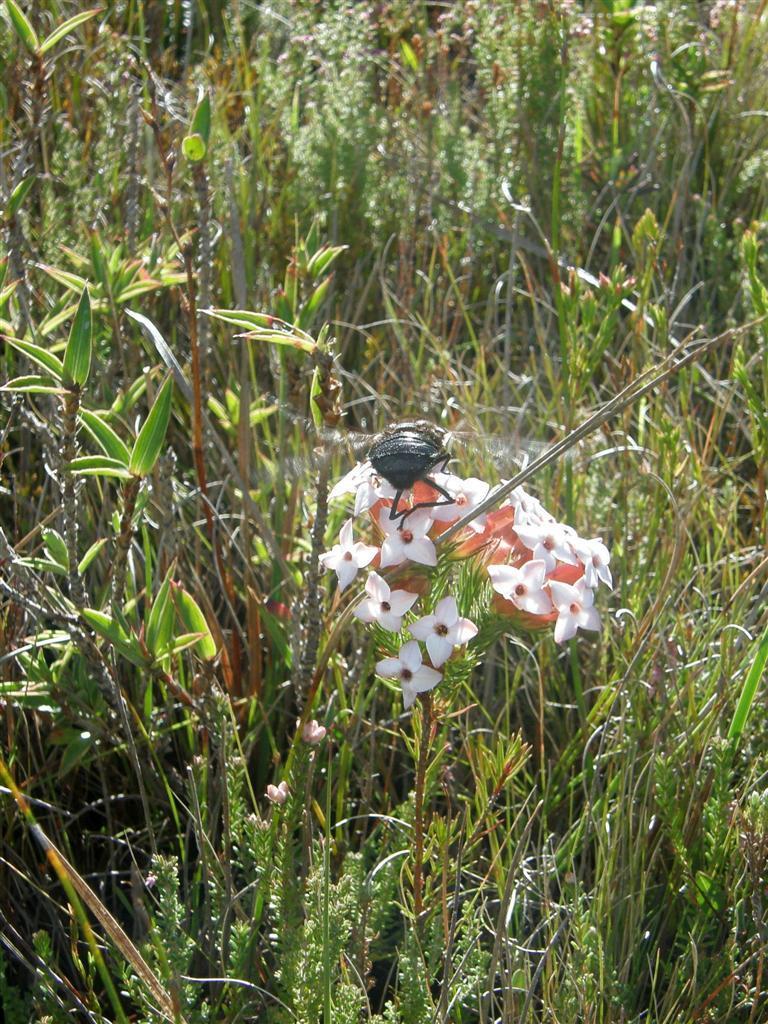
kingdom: Animalia
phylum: Arthropoda
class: Insecta
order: Diptera
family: Nemestrinidae
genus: Prosoeca
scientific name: Prosoeca westermanni
